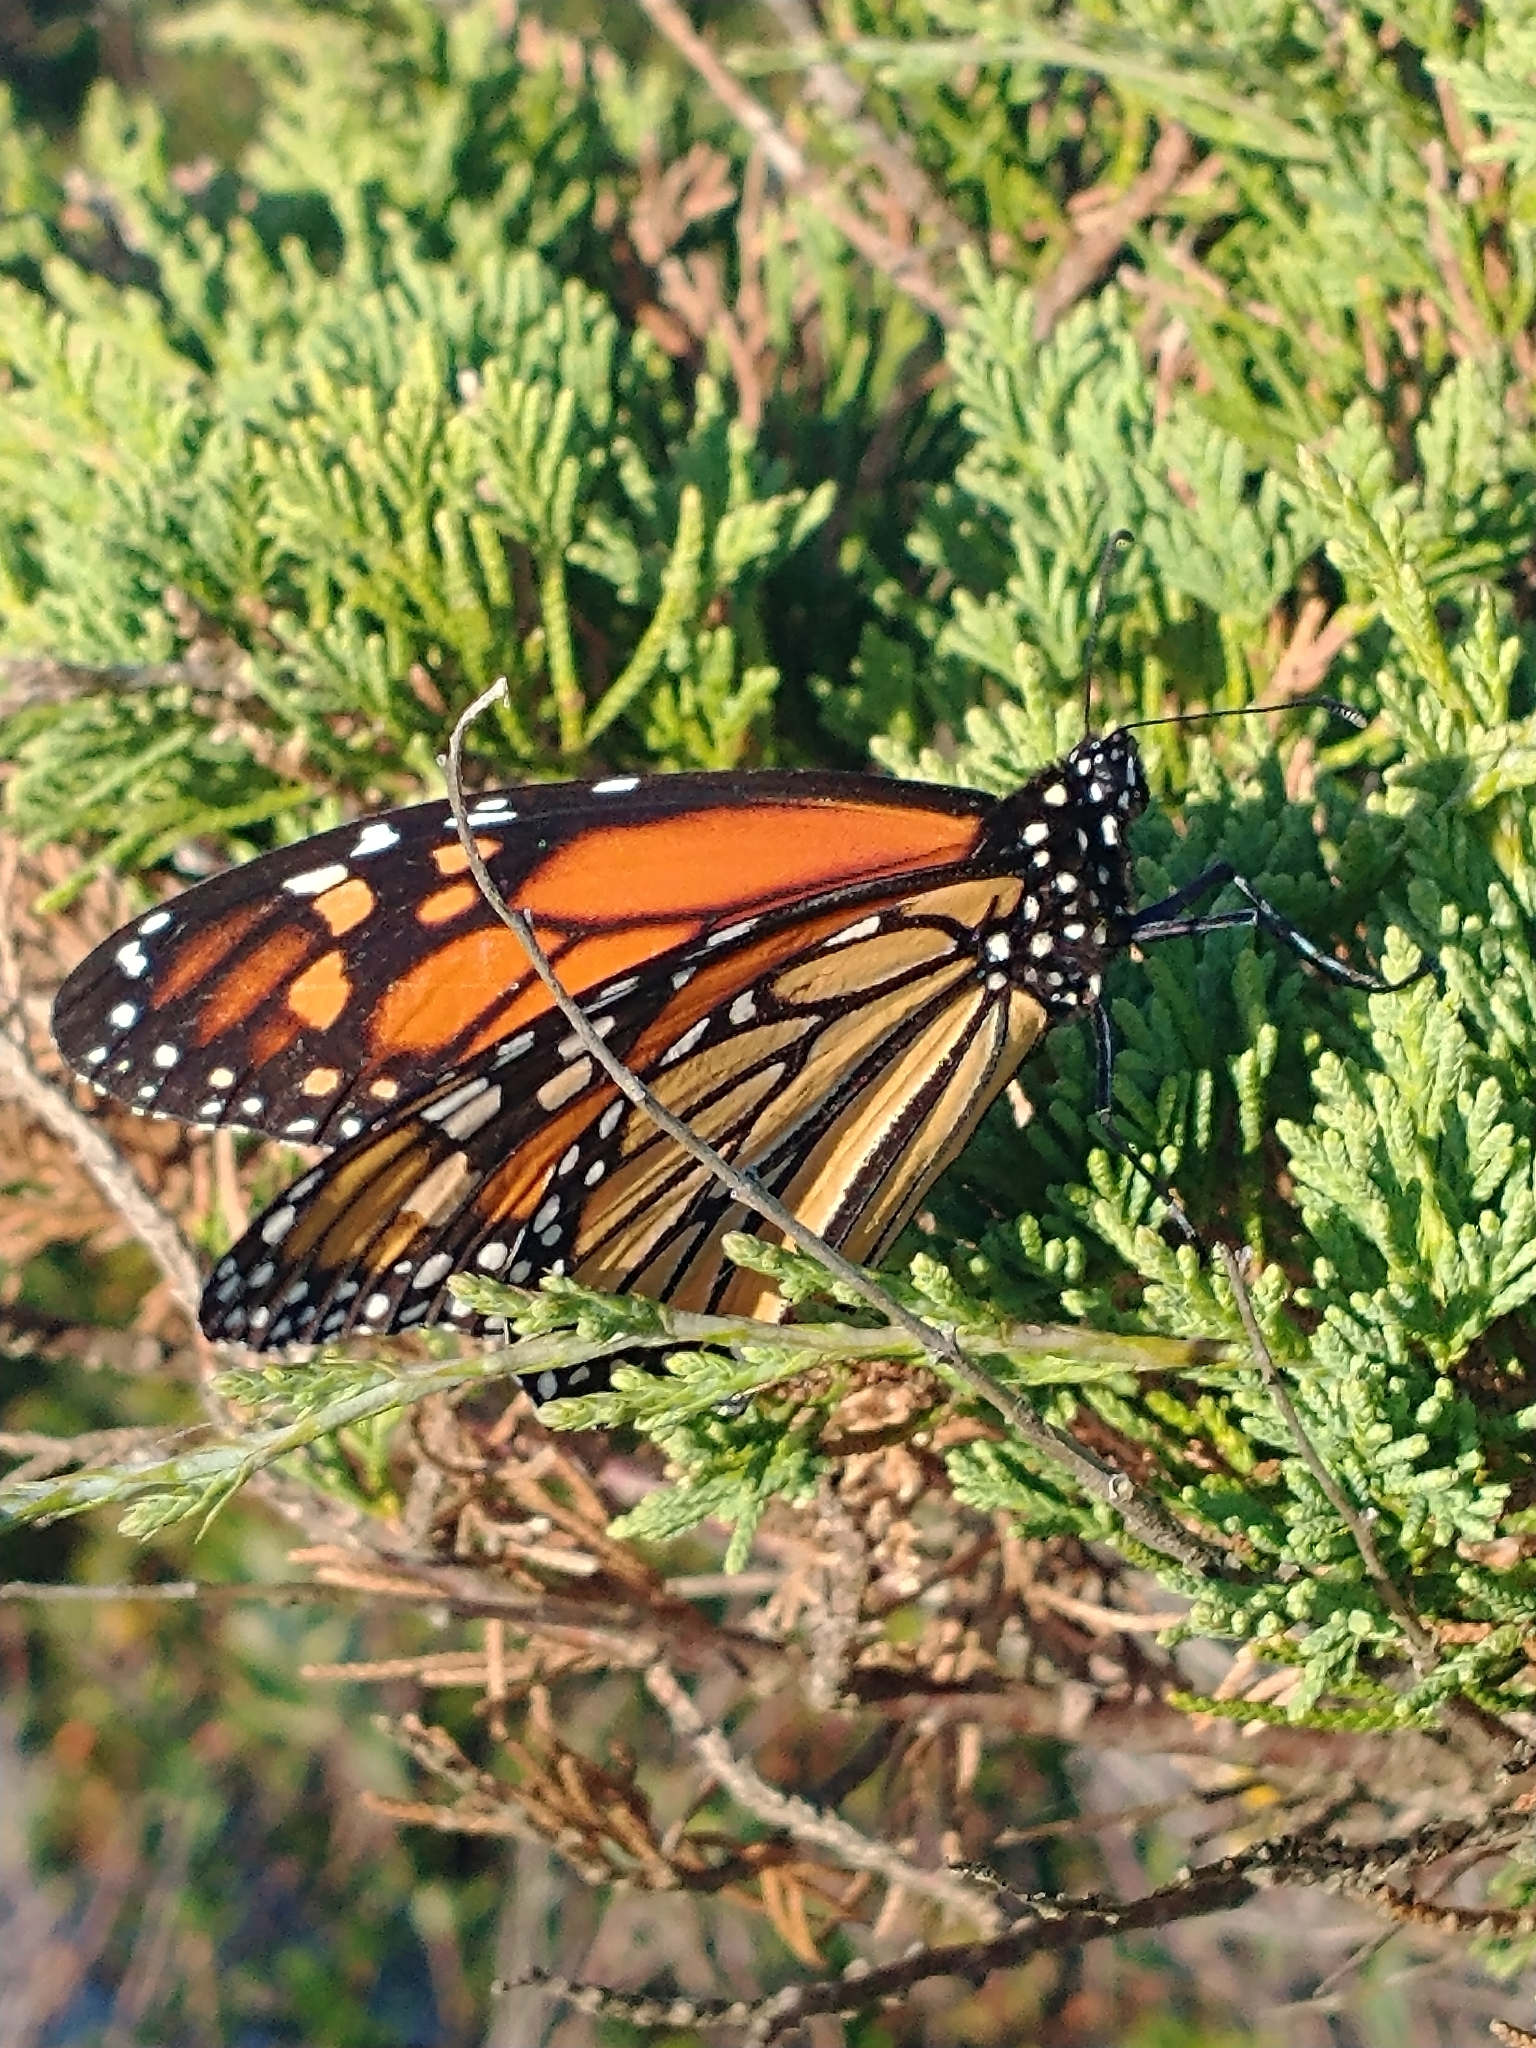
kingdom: Animalia
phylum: Arthropoda
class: Insecta
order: Lepidoptera
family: Nymphalidae
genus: Danaus
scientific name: Danaus plexippus
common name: Monarch
